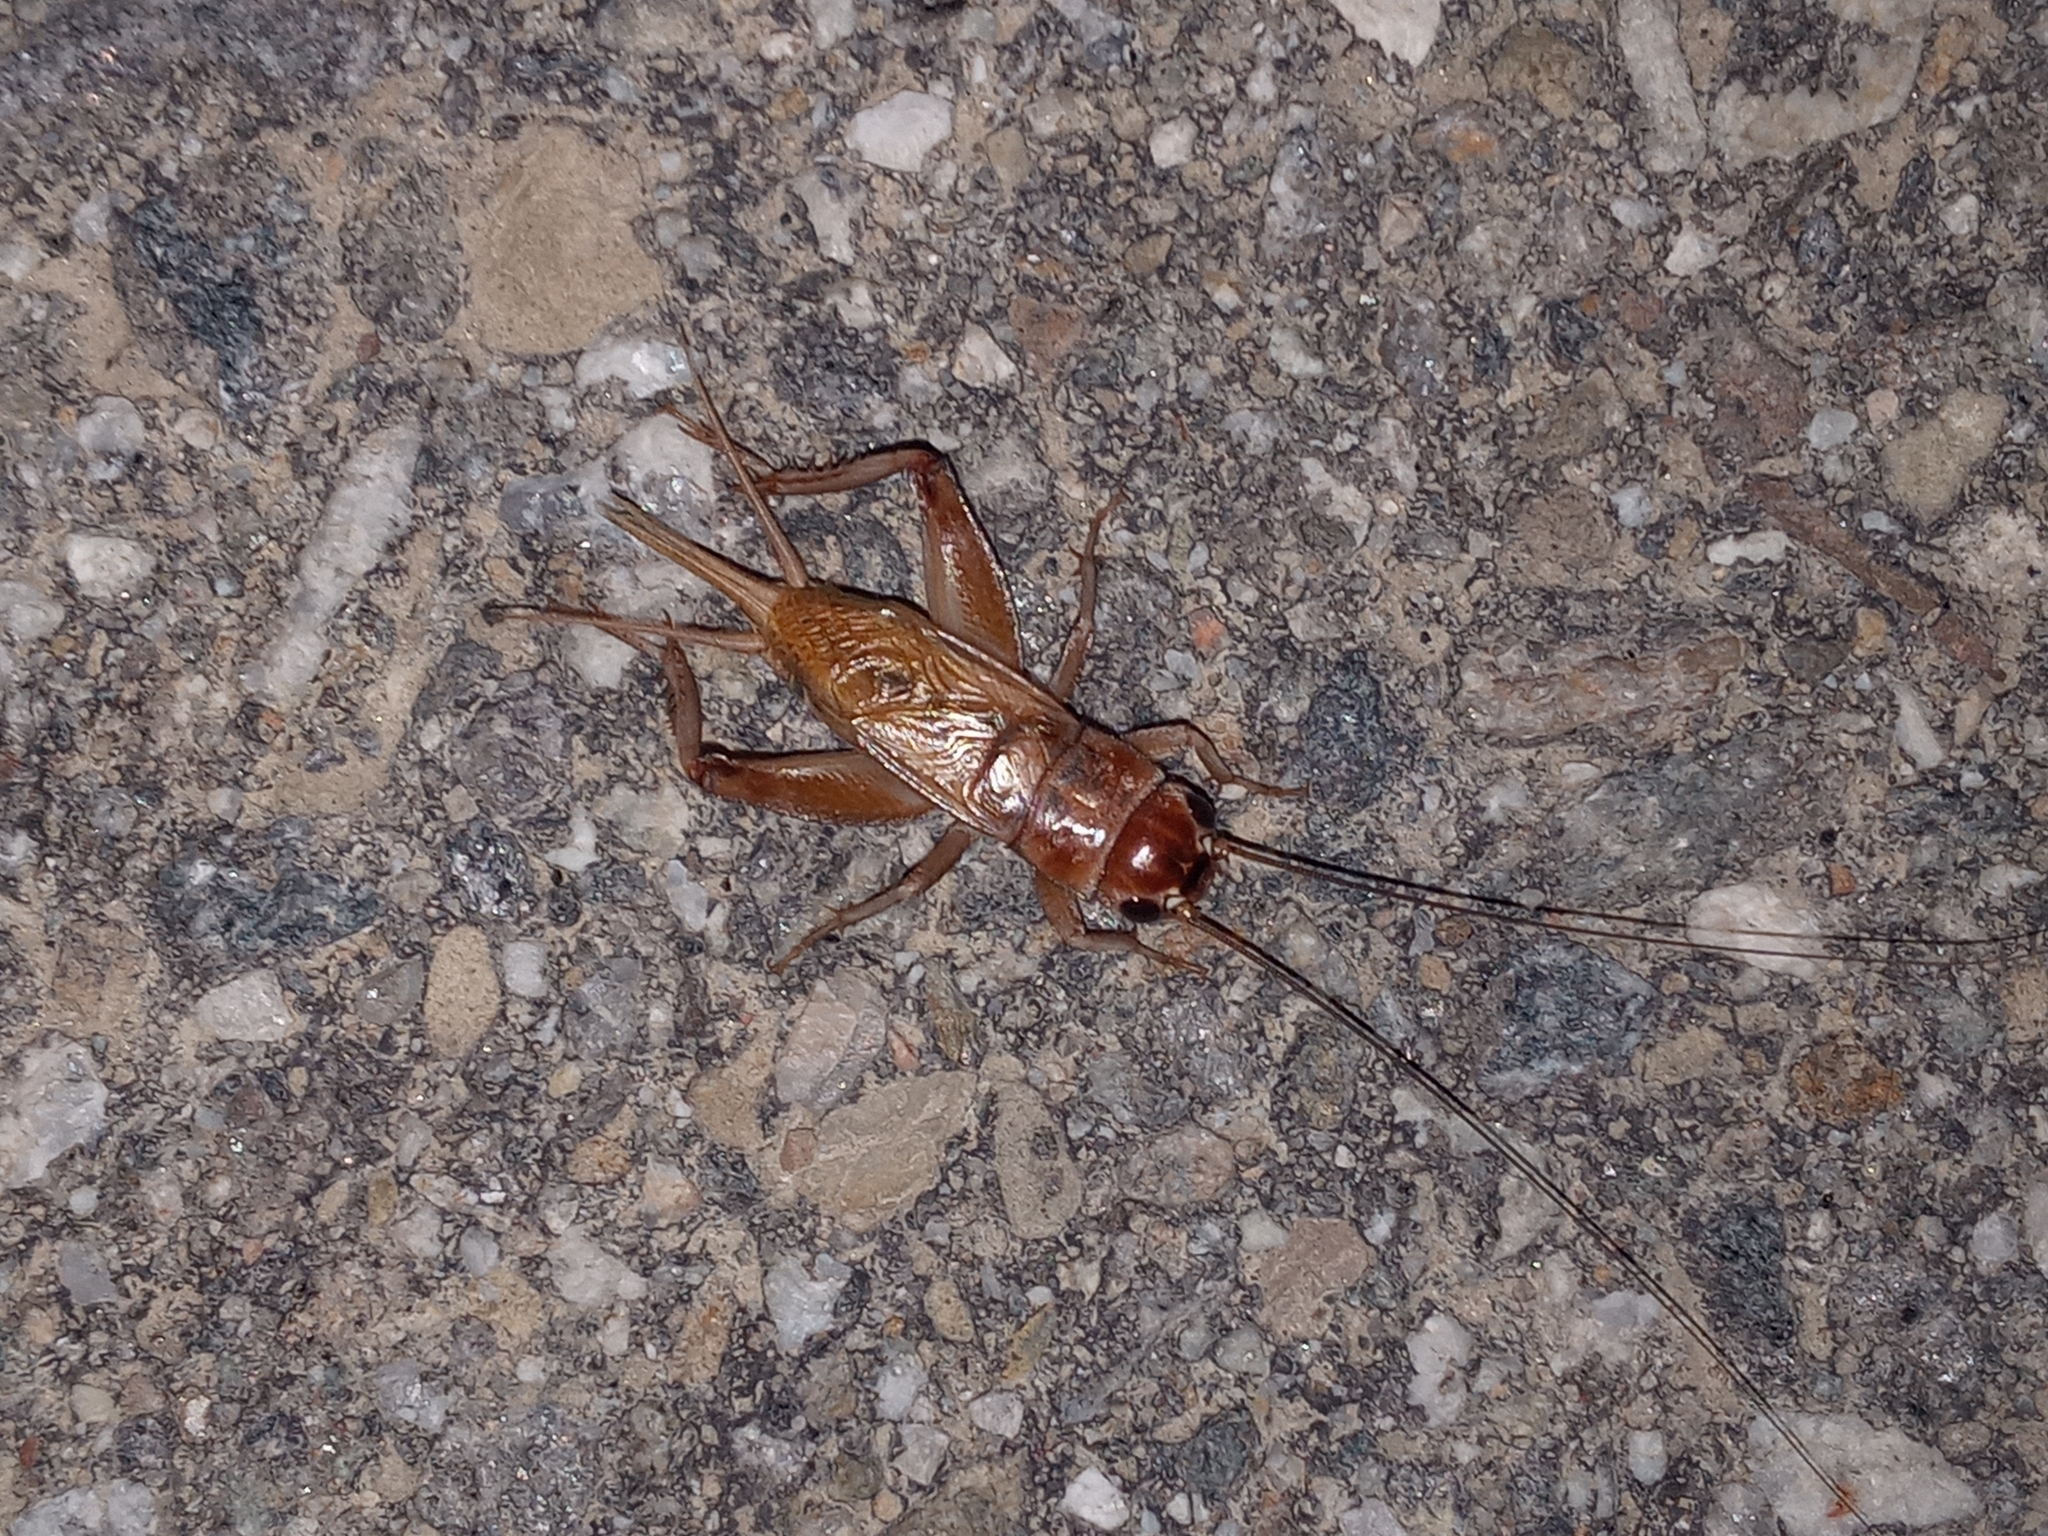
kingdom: Animalia
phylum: Arthropoda
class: Insecta
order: Orthoptera
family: Gryllidae
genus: Gryllus
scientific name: Gryllus lineaticeps
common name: Variable field cricket
